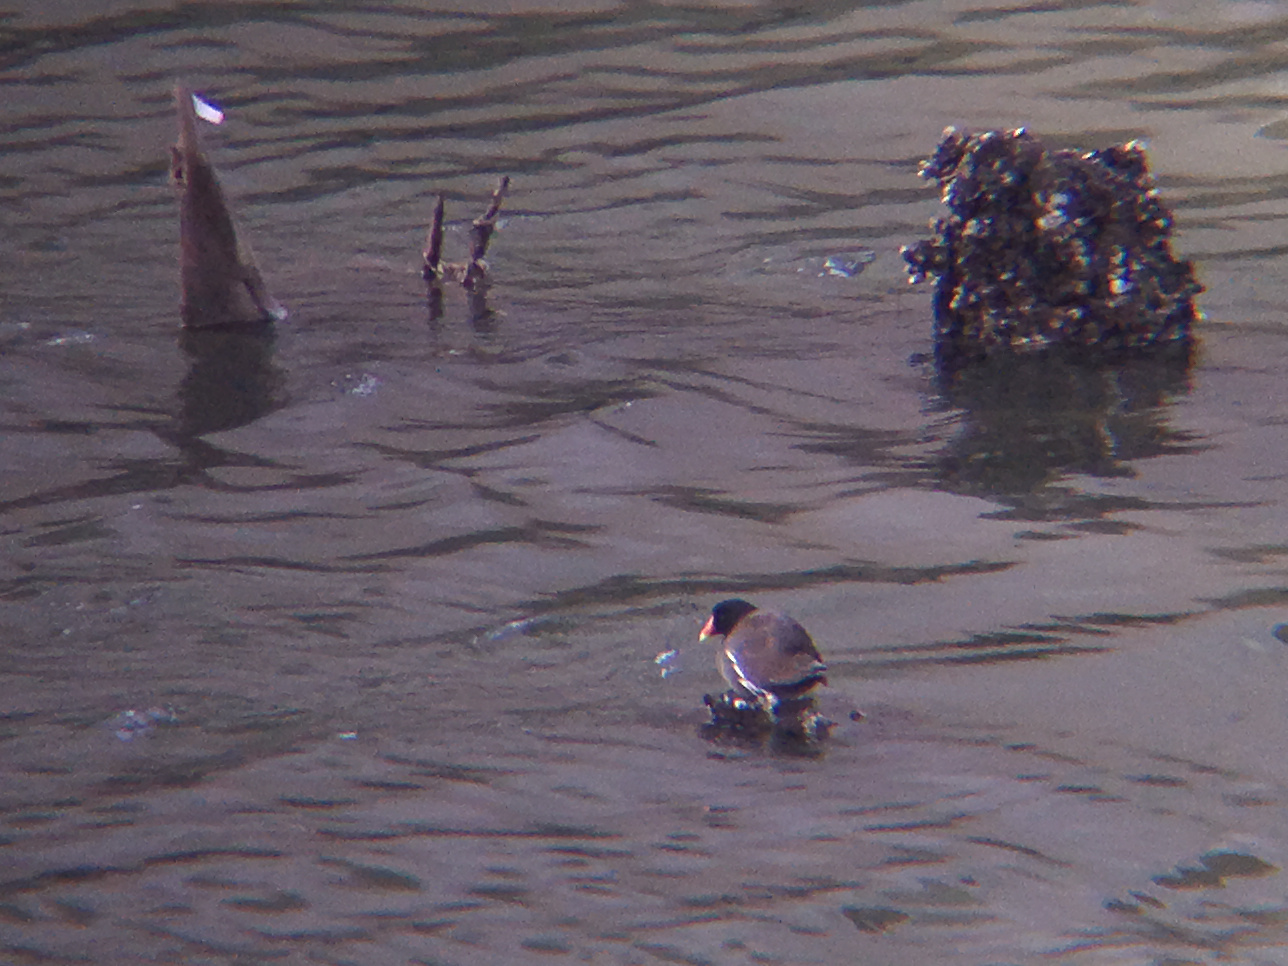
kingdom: Animalia
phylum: Chordata
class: Aves
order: Gruiformes
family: Rallidae
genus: Gallinula
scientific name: Gallinula chloropus
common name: Common moorhen
